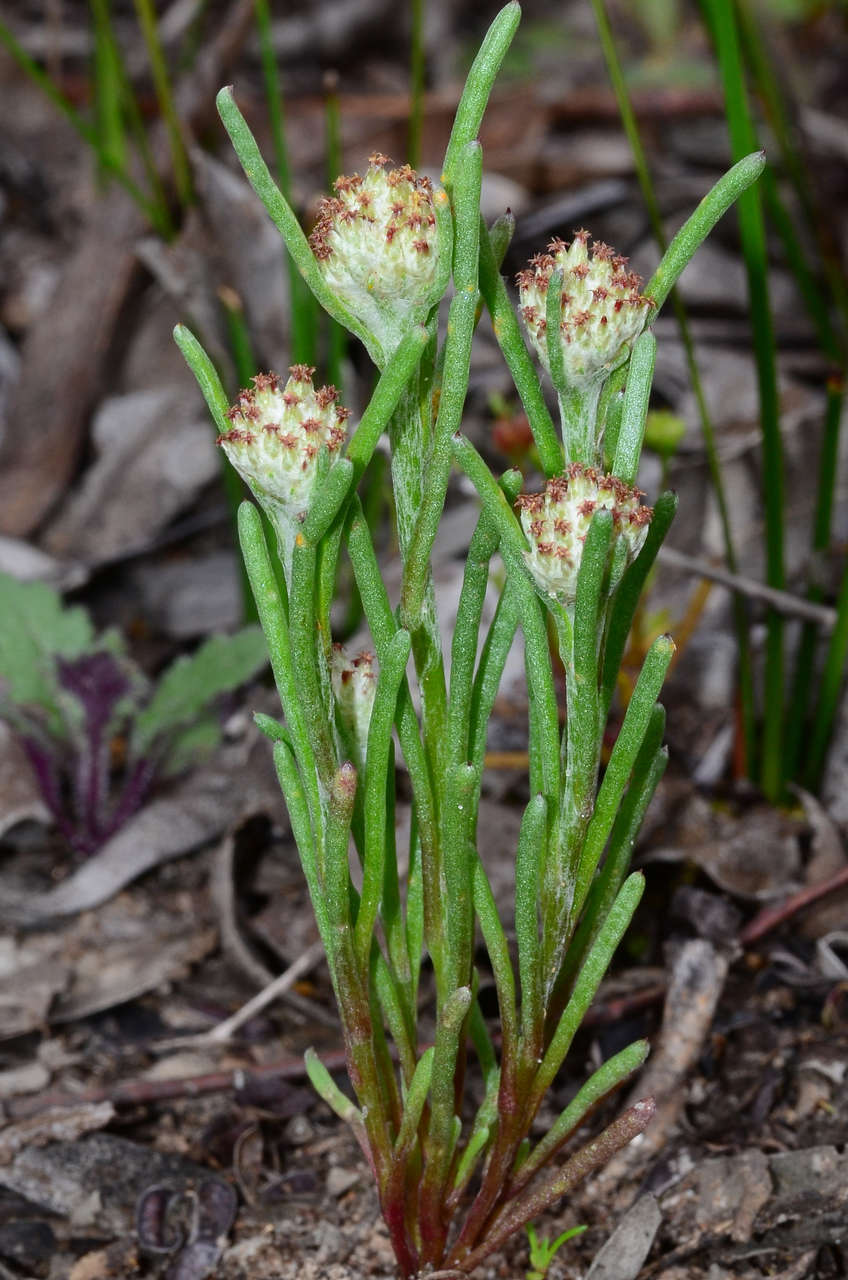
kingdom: Plantae
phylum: Tracheophyta
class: Magnoliopsida
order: Asterales
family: Asteraceae
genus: Blennospora
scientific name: Blennospora drummondii
